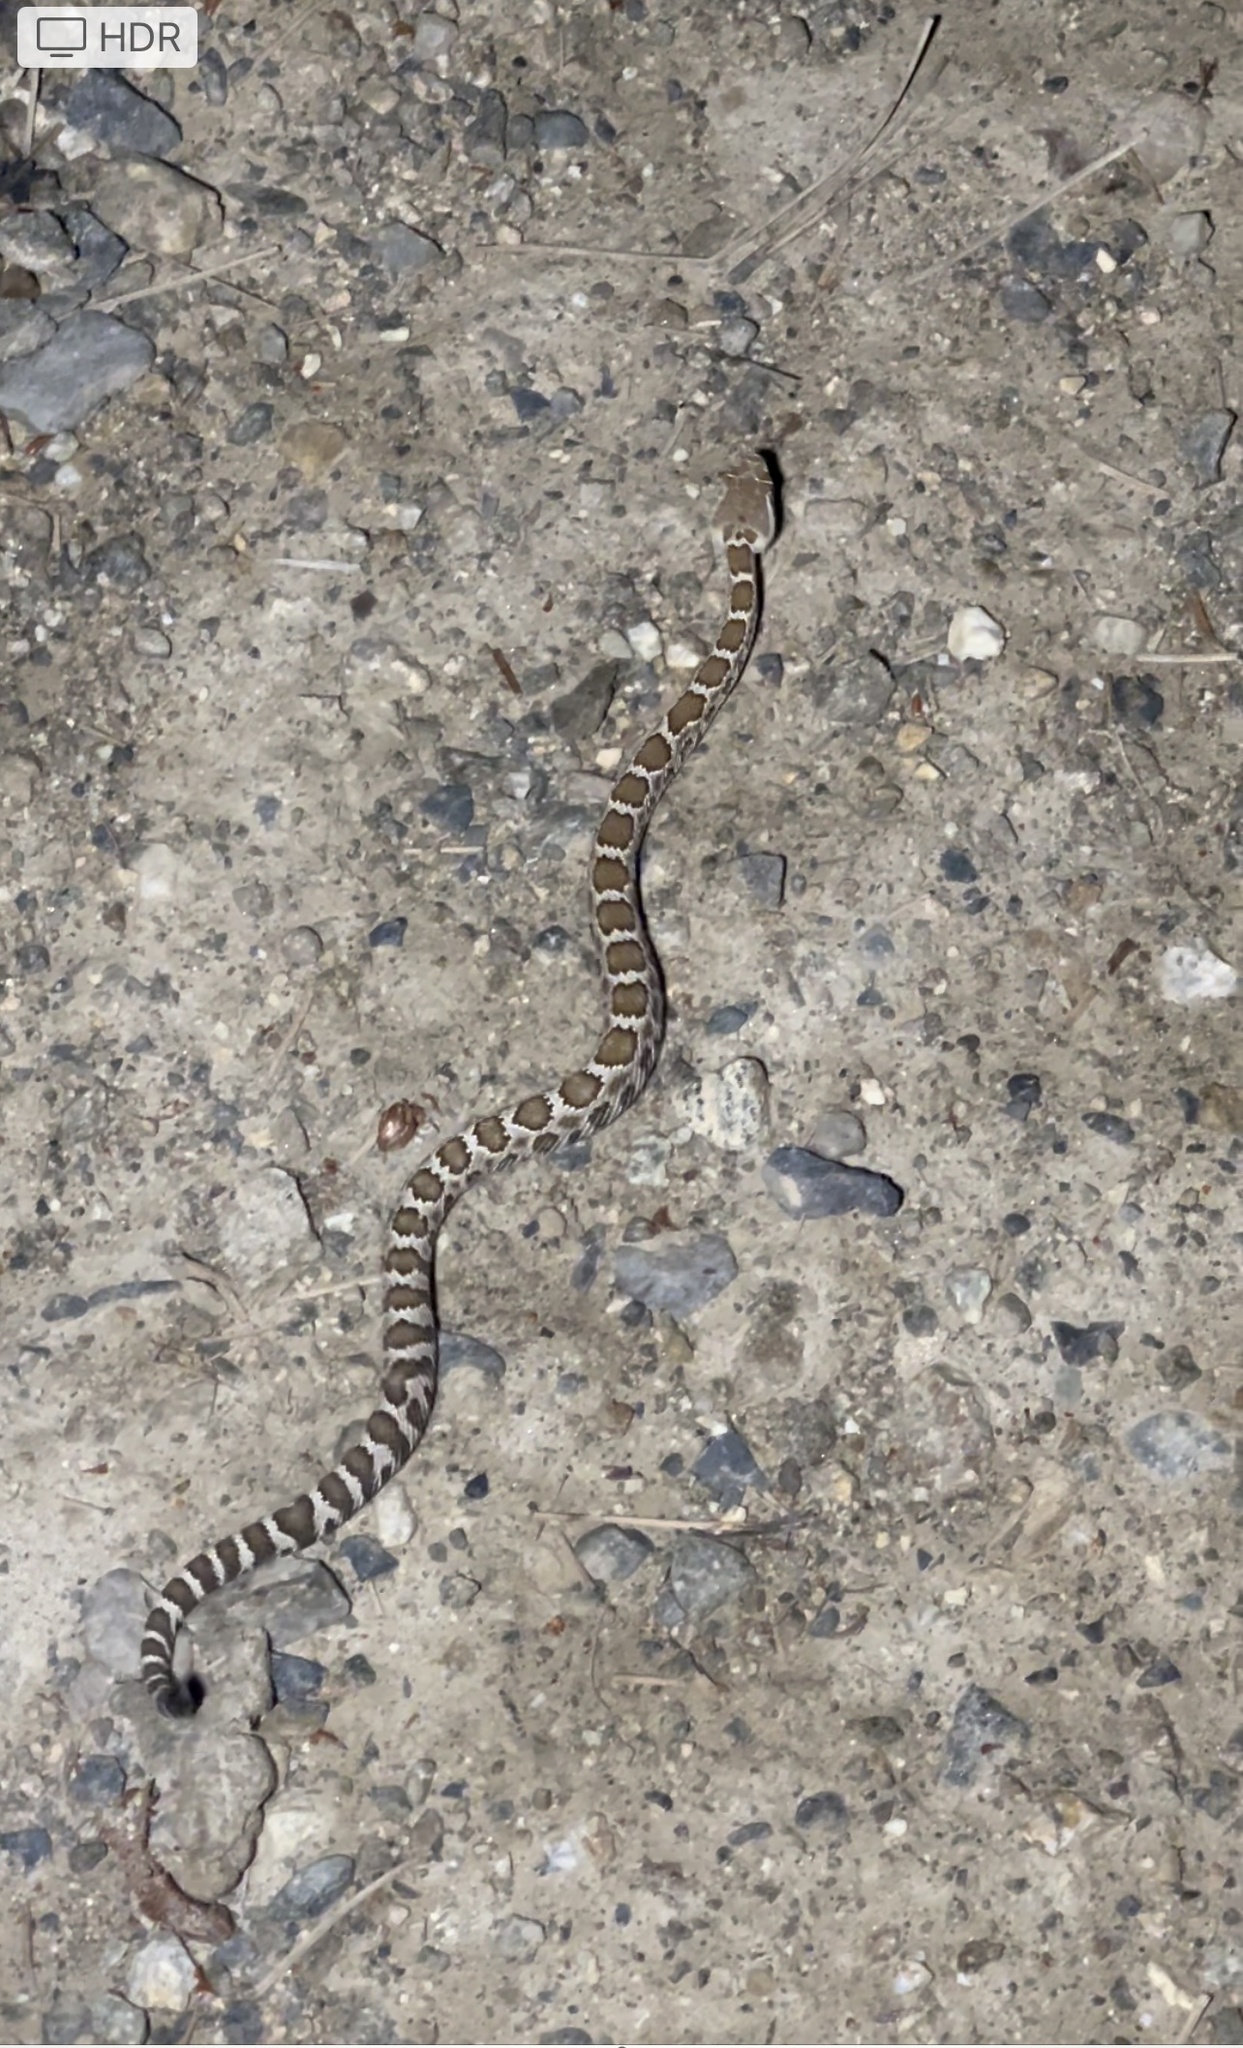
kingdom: Animalia
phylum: Chordata
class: Squamata
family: Viperidae
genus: Crotalus
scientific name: Crotalus oreganus
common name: Abyssus
